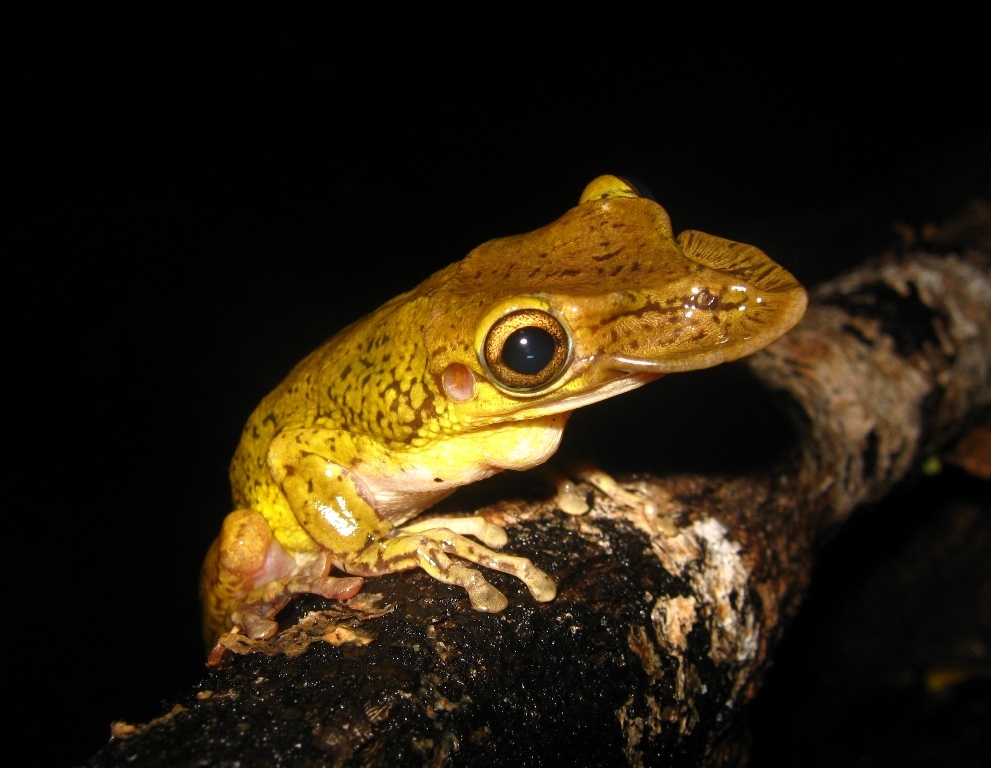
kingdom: Animalia
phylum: Chordata
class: Amphibia
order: Anura
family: Hylidae
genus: Triprion
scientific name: Triprion spatulatus
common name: Mexican shovel-headed treefrog
